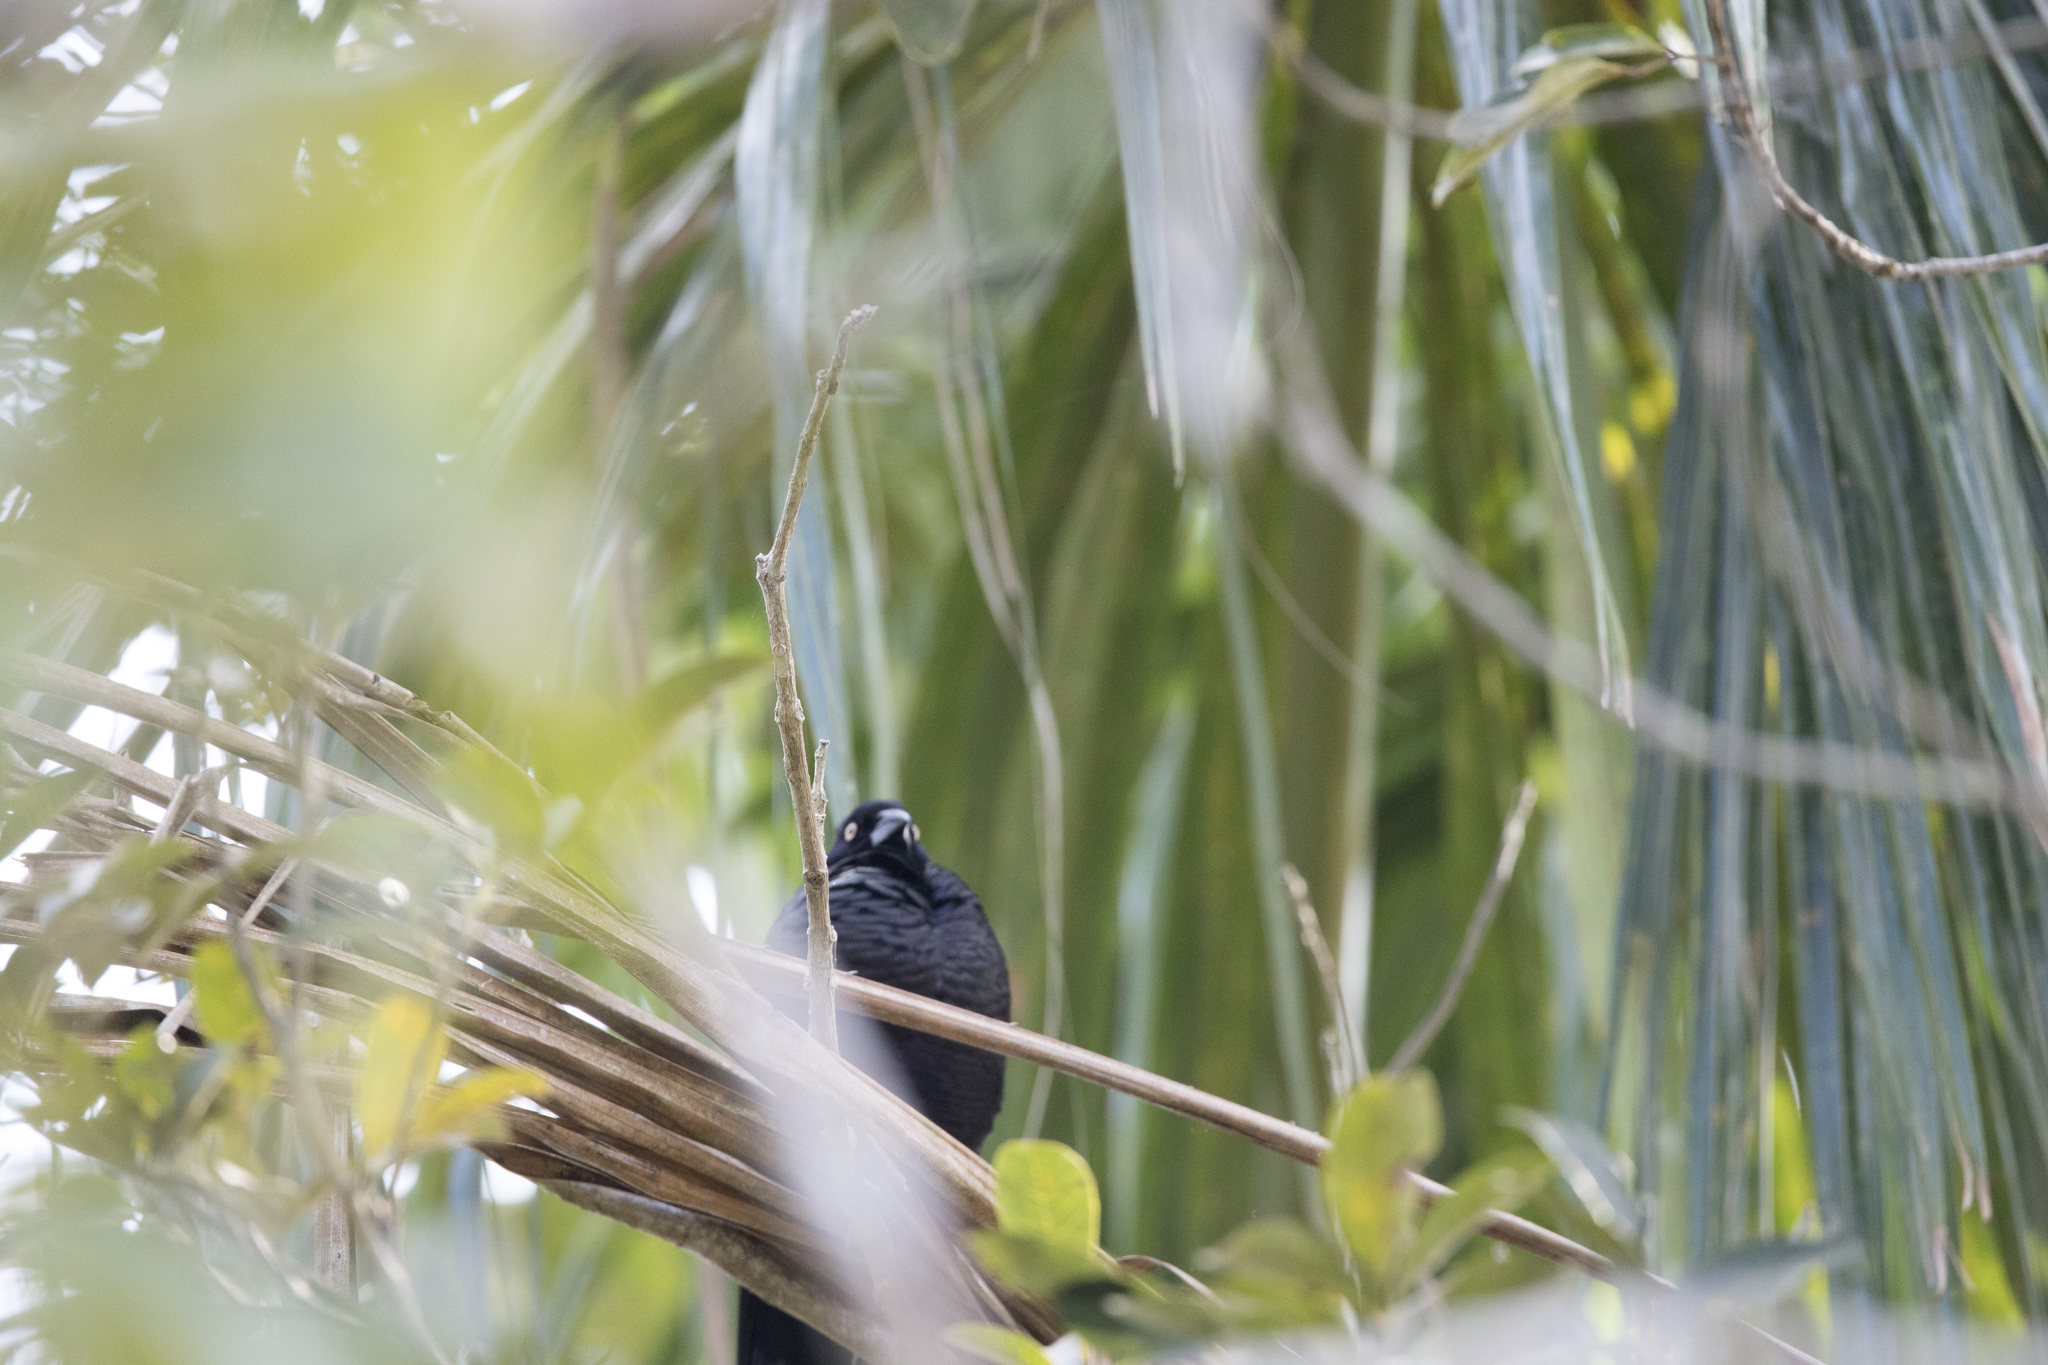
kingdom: Animalia
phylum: Chordata
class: Aves
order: Passeriformes
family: Icteridae
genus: Molothrus
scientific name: Molothrus oryzivorus
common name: Giant cowbird
